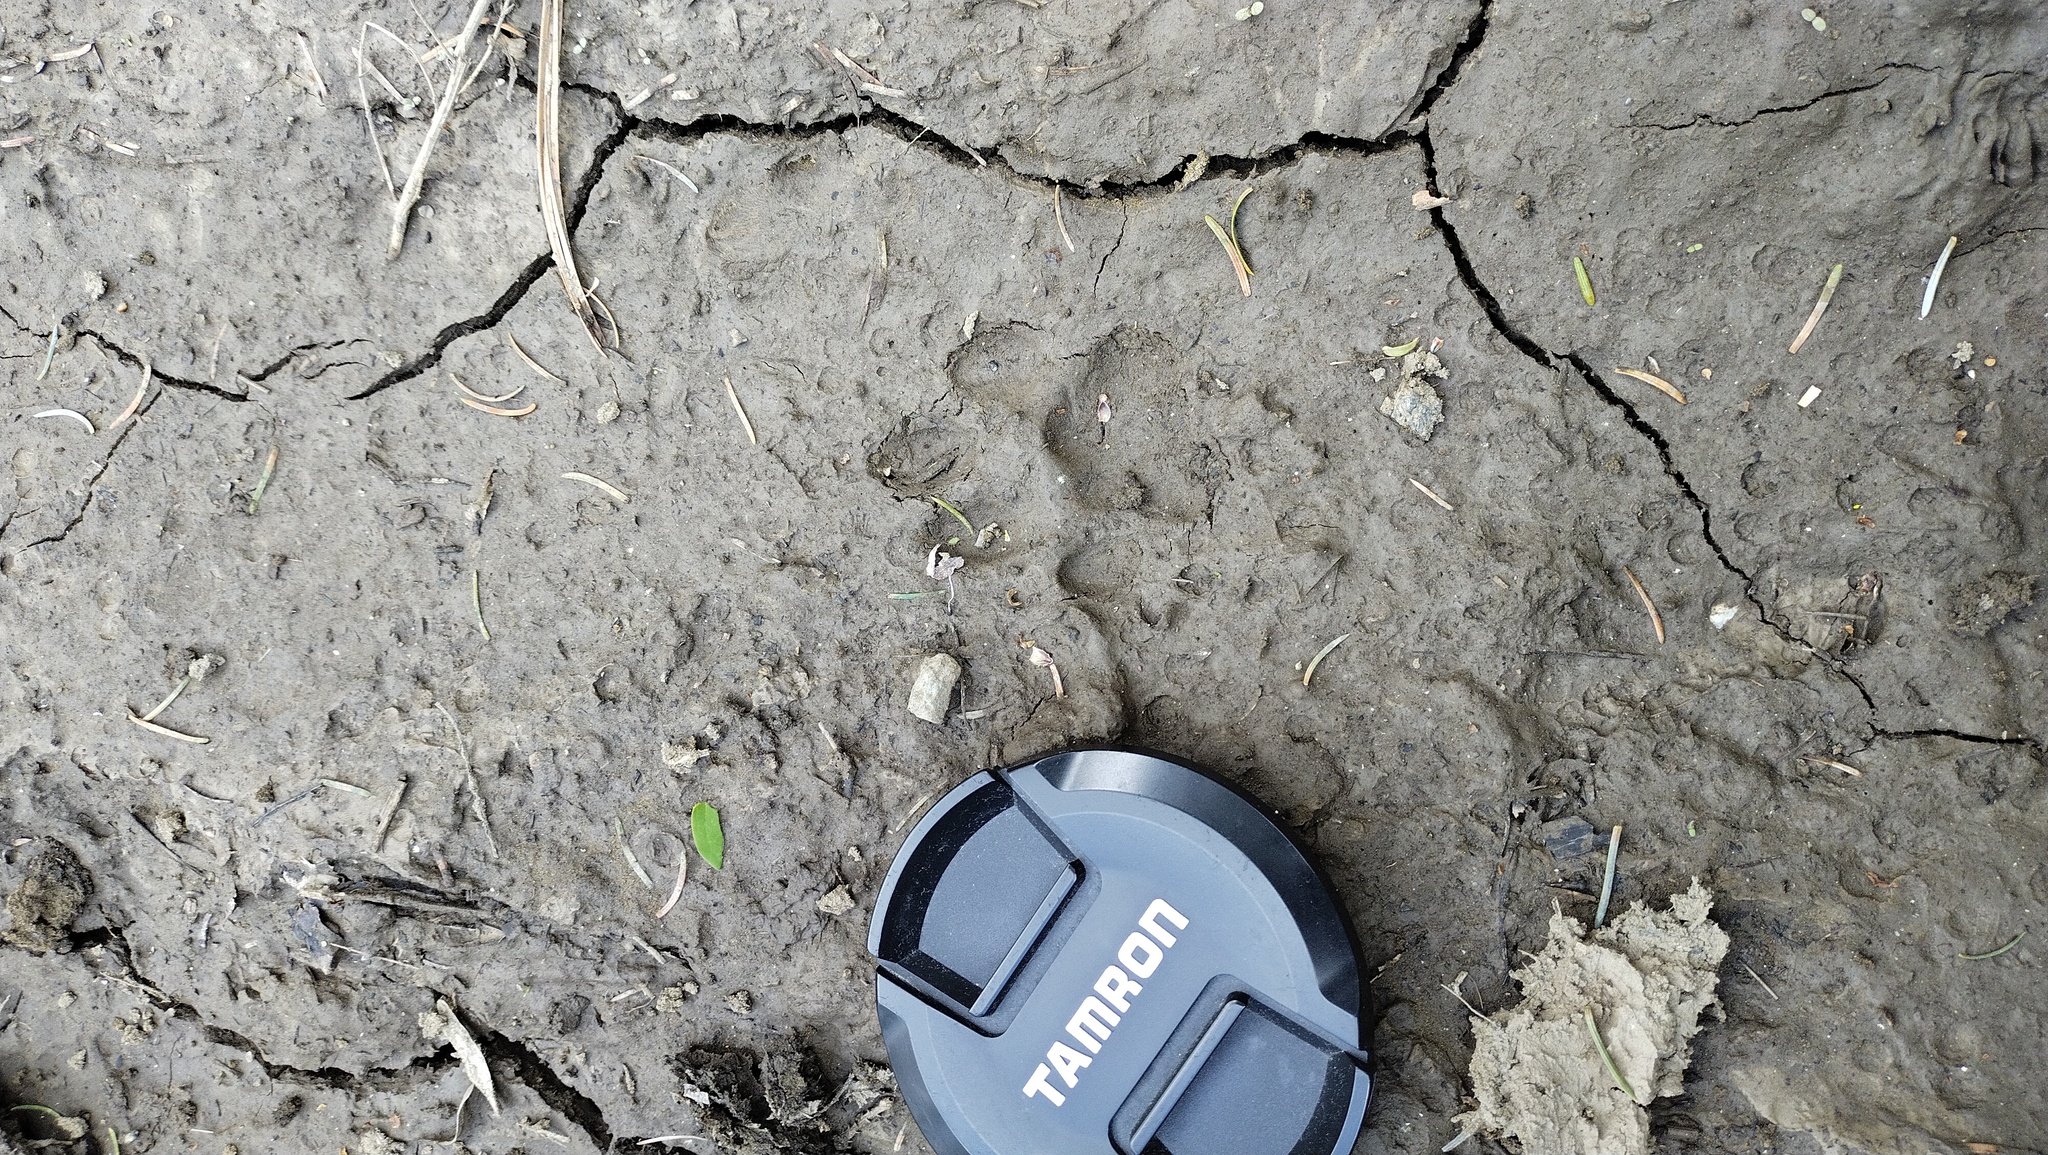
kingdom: Animalia
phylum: Chordata
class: Mammalia
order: Carnivora
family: Felidae
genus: Lynx
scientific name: Lynx lynx
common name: Eurasian lynx
